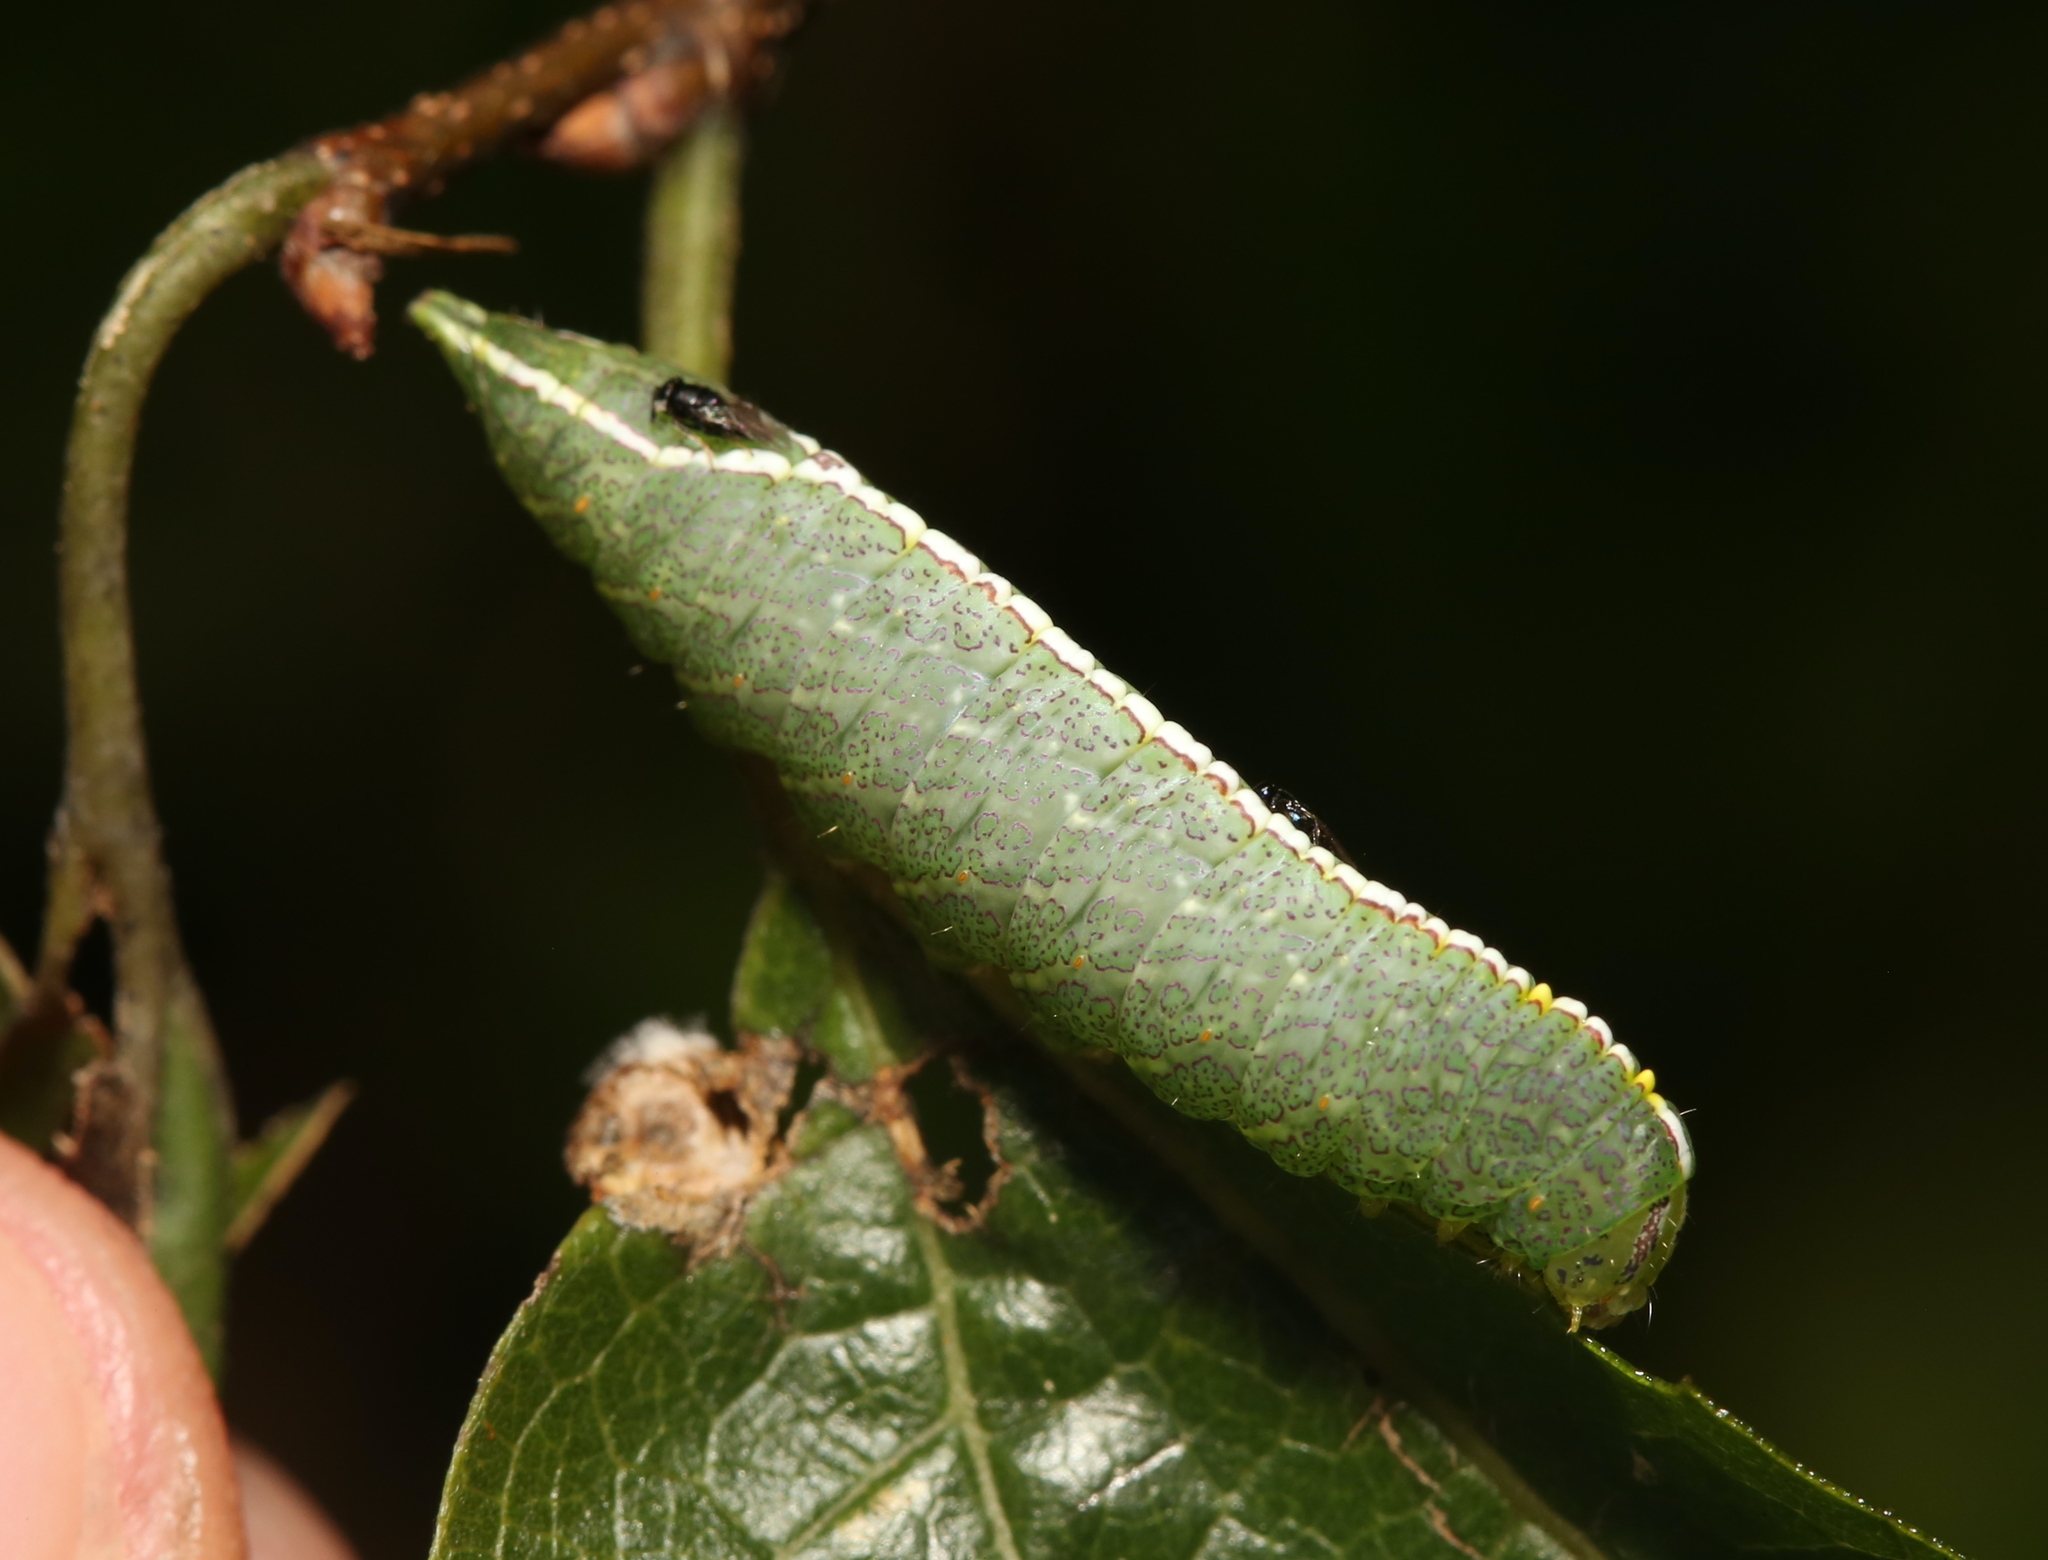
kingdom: Animalia
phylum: Arthropoda
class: Insecta
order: Lepidoptera
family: Notodontidae
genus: Rifargia
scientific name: Rifargia
